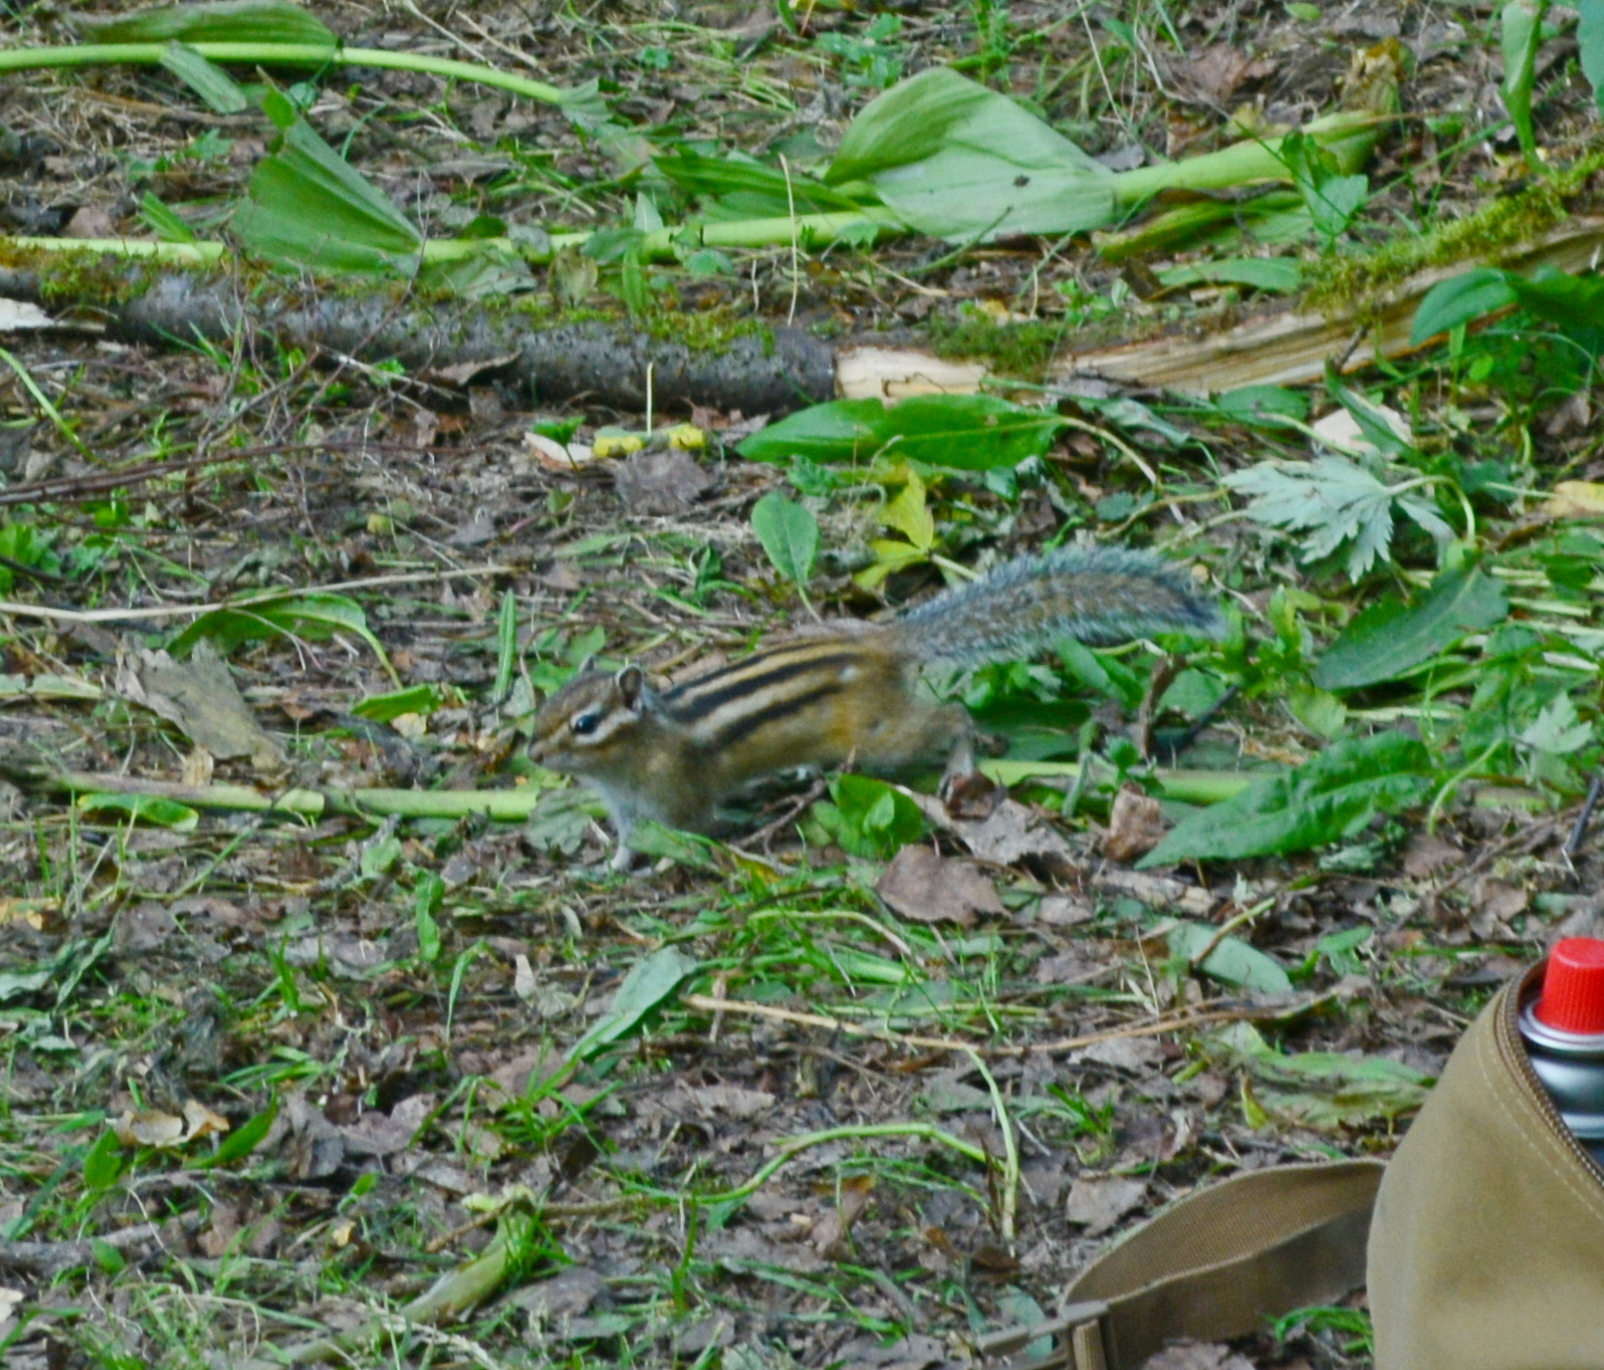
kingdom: Animalia
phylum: Chordata
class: Mammalia
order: Rodentia
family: Sciuridae
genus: Tamias
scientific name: Tamias sibiricus
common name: Siberian chipmunk
